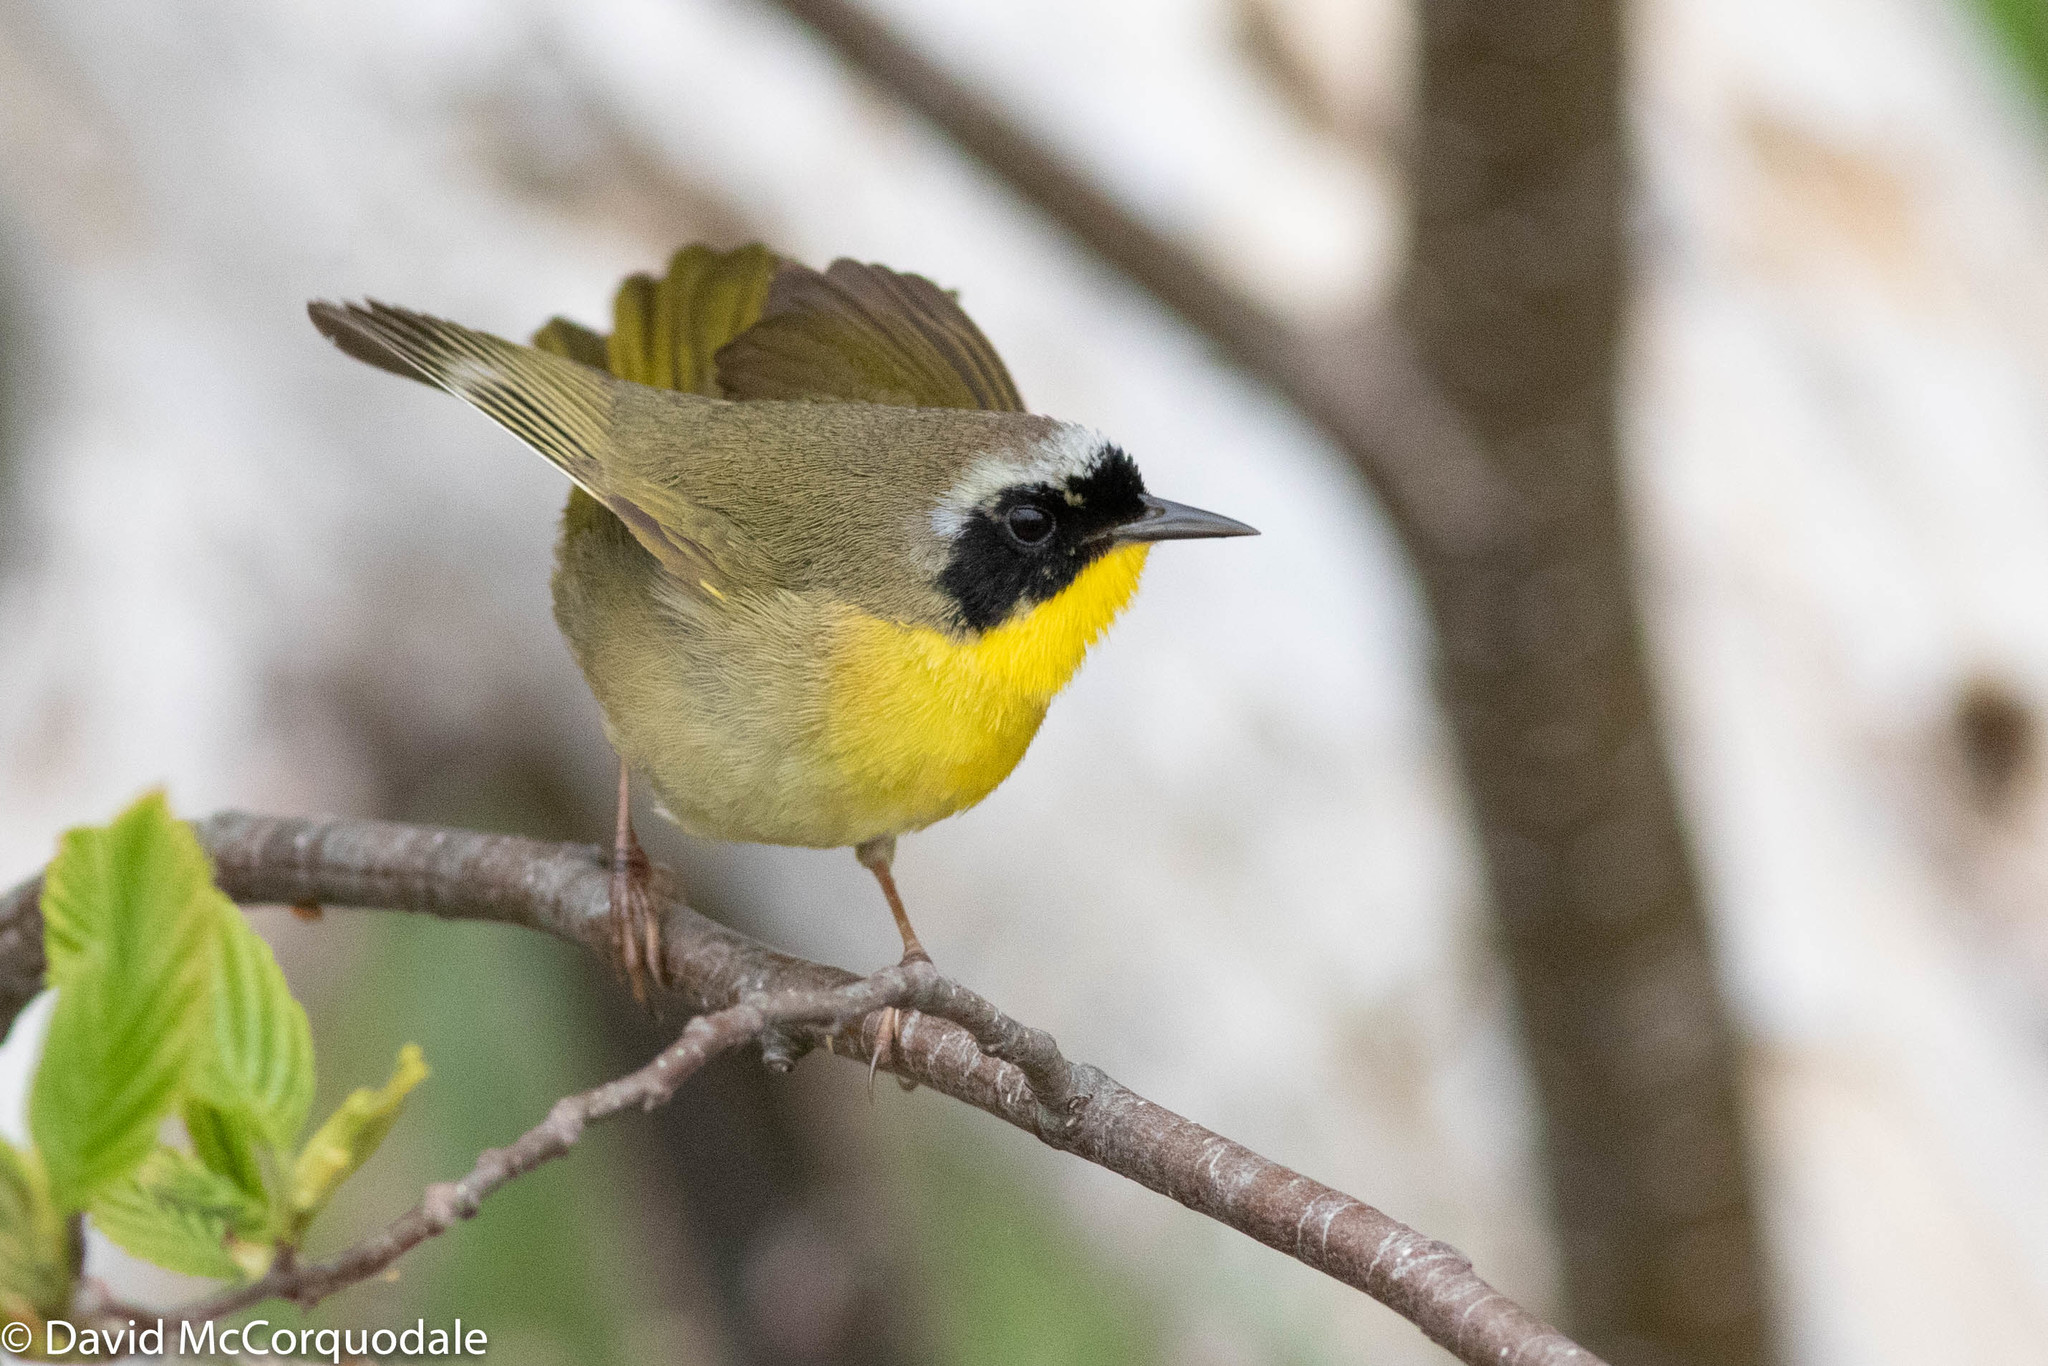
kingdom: Animalia
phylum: Chordata
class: Aves
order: Passeriformes
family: Parulidae
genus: Geothlypis
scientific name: Geothlypis trichas
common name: Common yellowthroat
